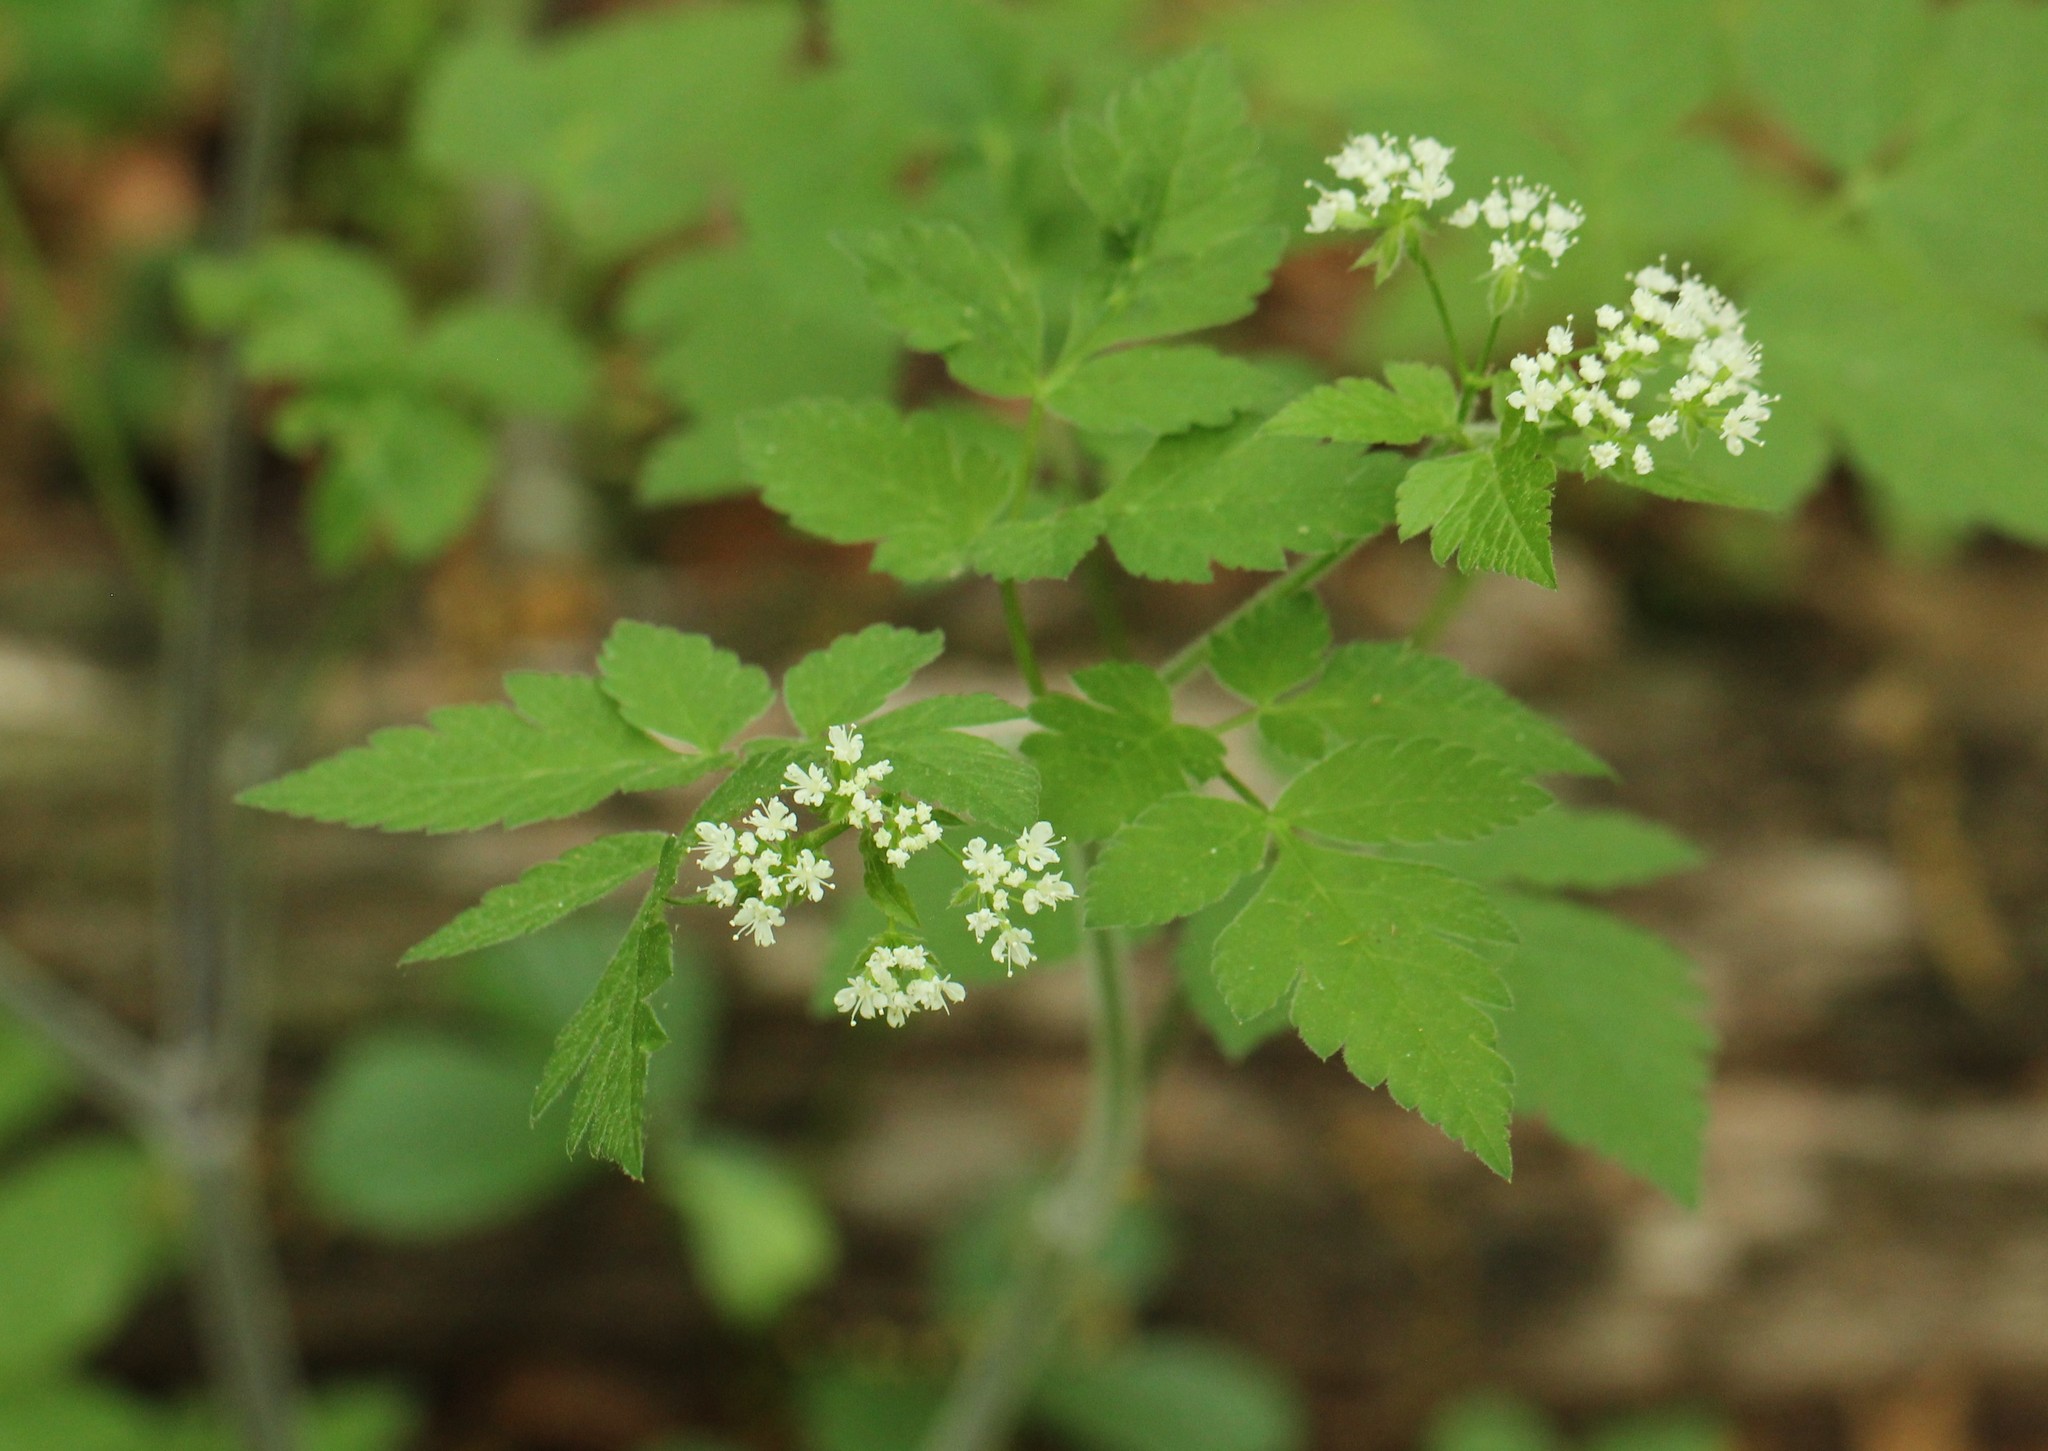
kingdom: Plantae
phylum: Tracheophyta
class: Magnoliopsida
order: Apiales
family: Apiaceae
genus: Osmorhiza
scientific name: Osmorhiza longistylis
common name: Smooth sweet cicely
